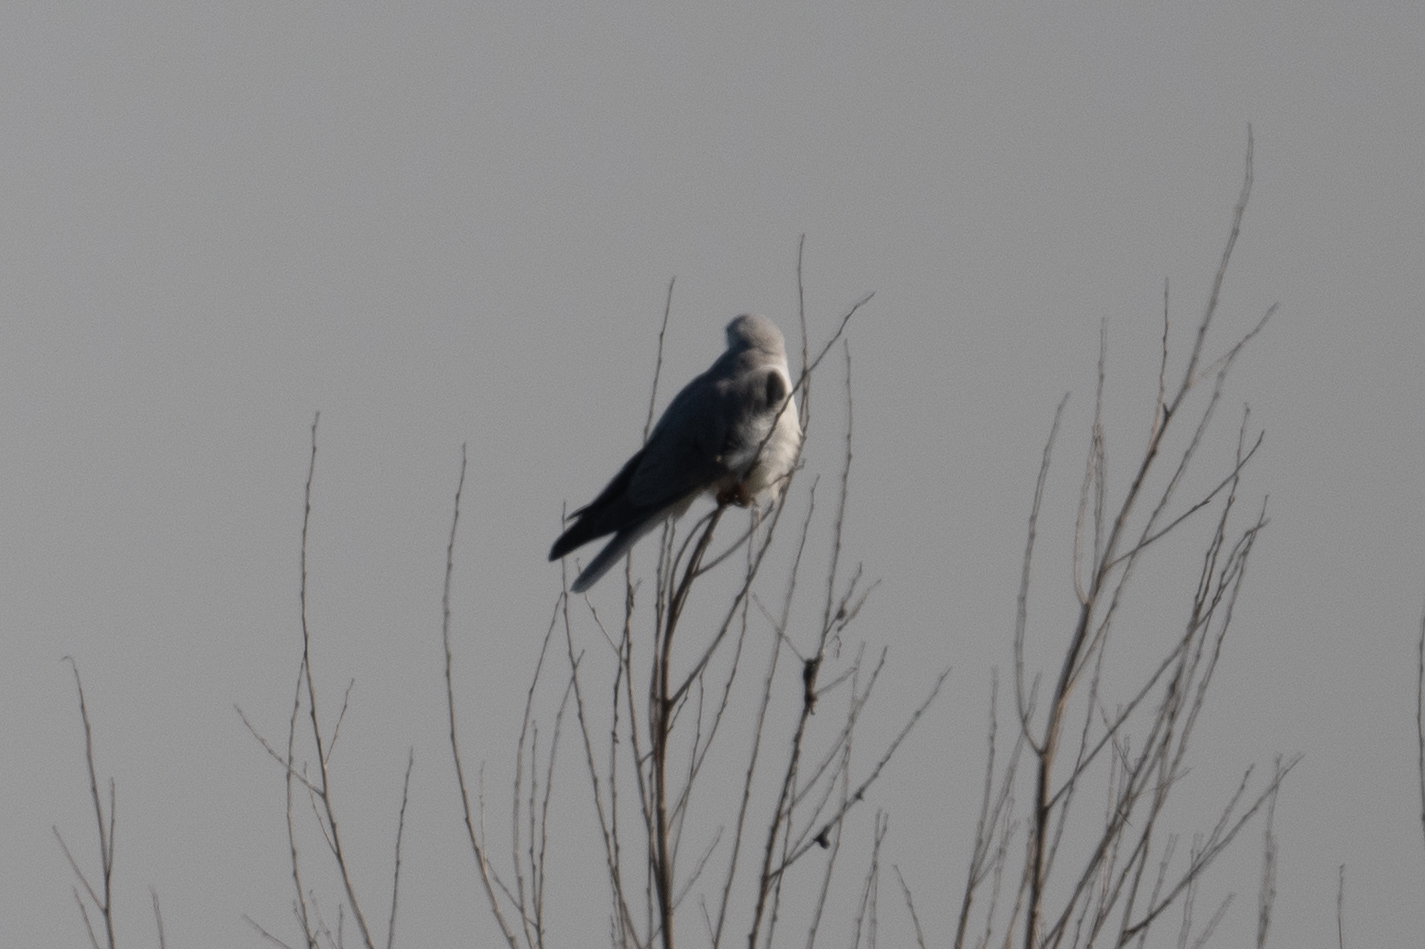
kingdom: Animalia
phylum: Chordata
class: Aves
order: Accipitriformes
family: Accipitridae
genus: Elanus
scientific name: Elanus leucurus
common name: White-tailed kite
